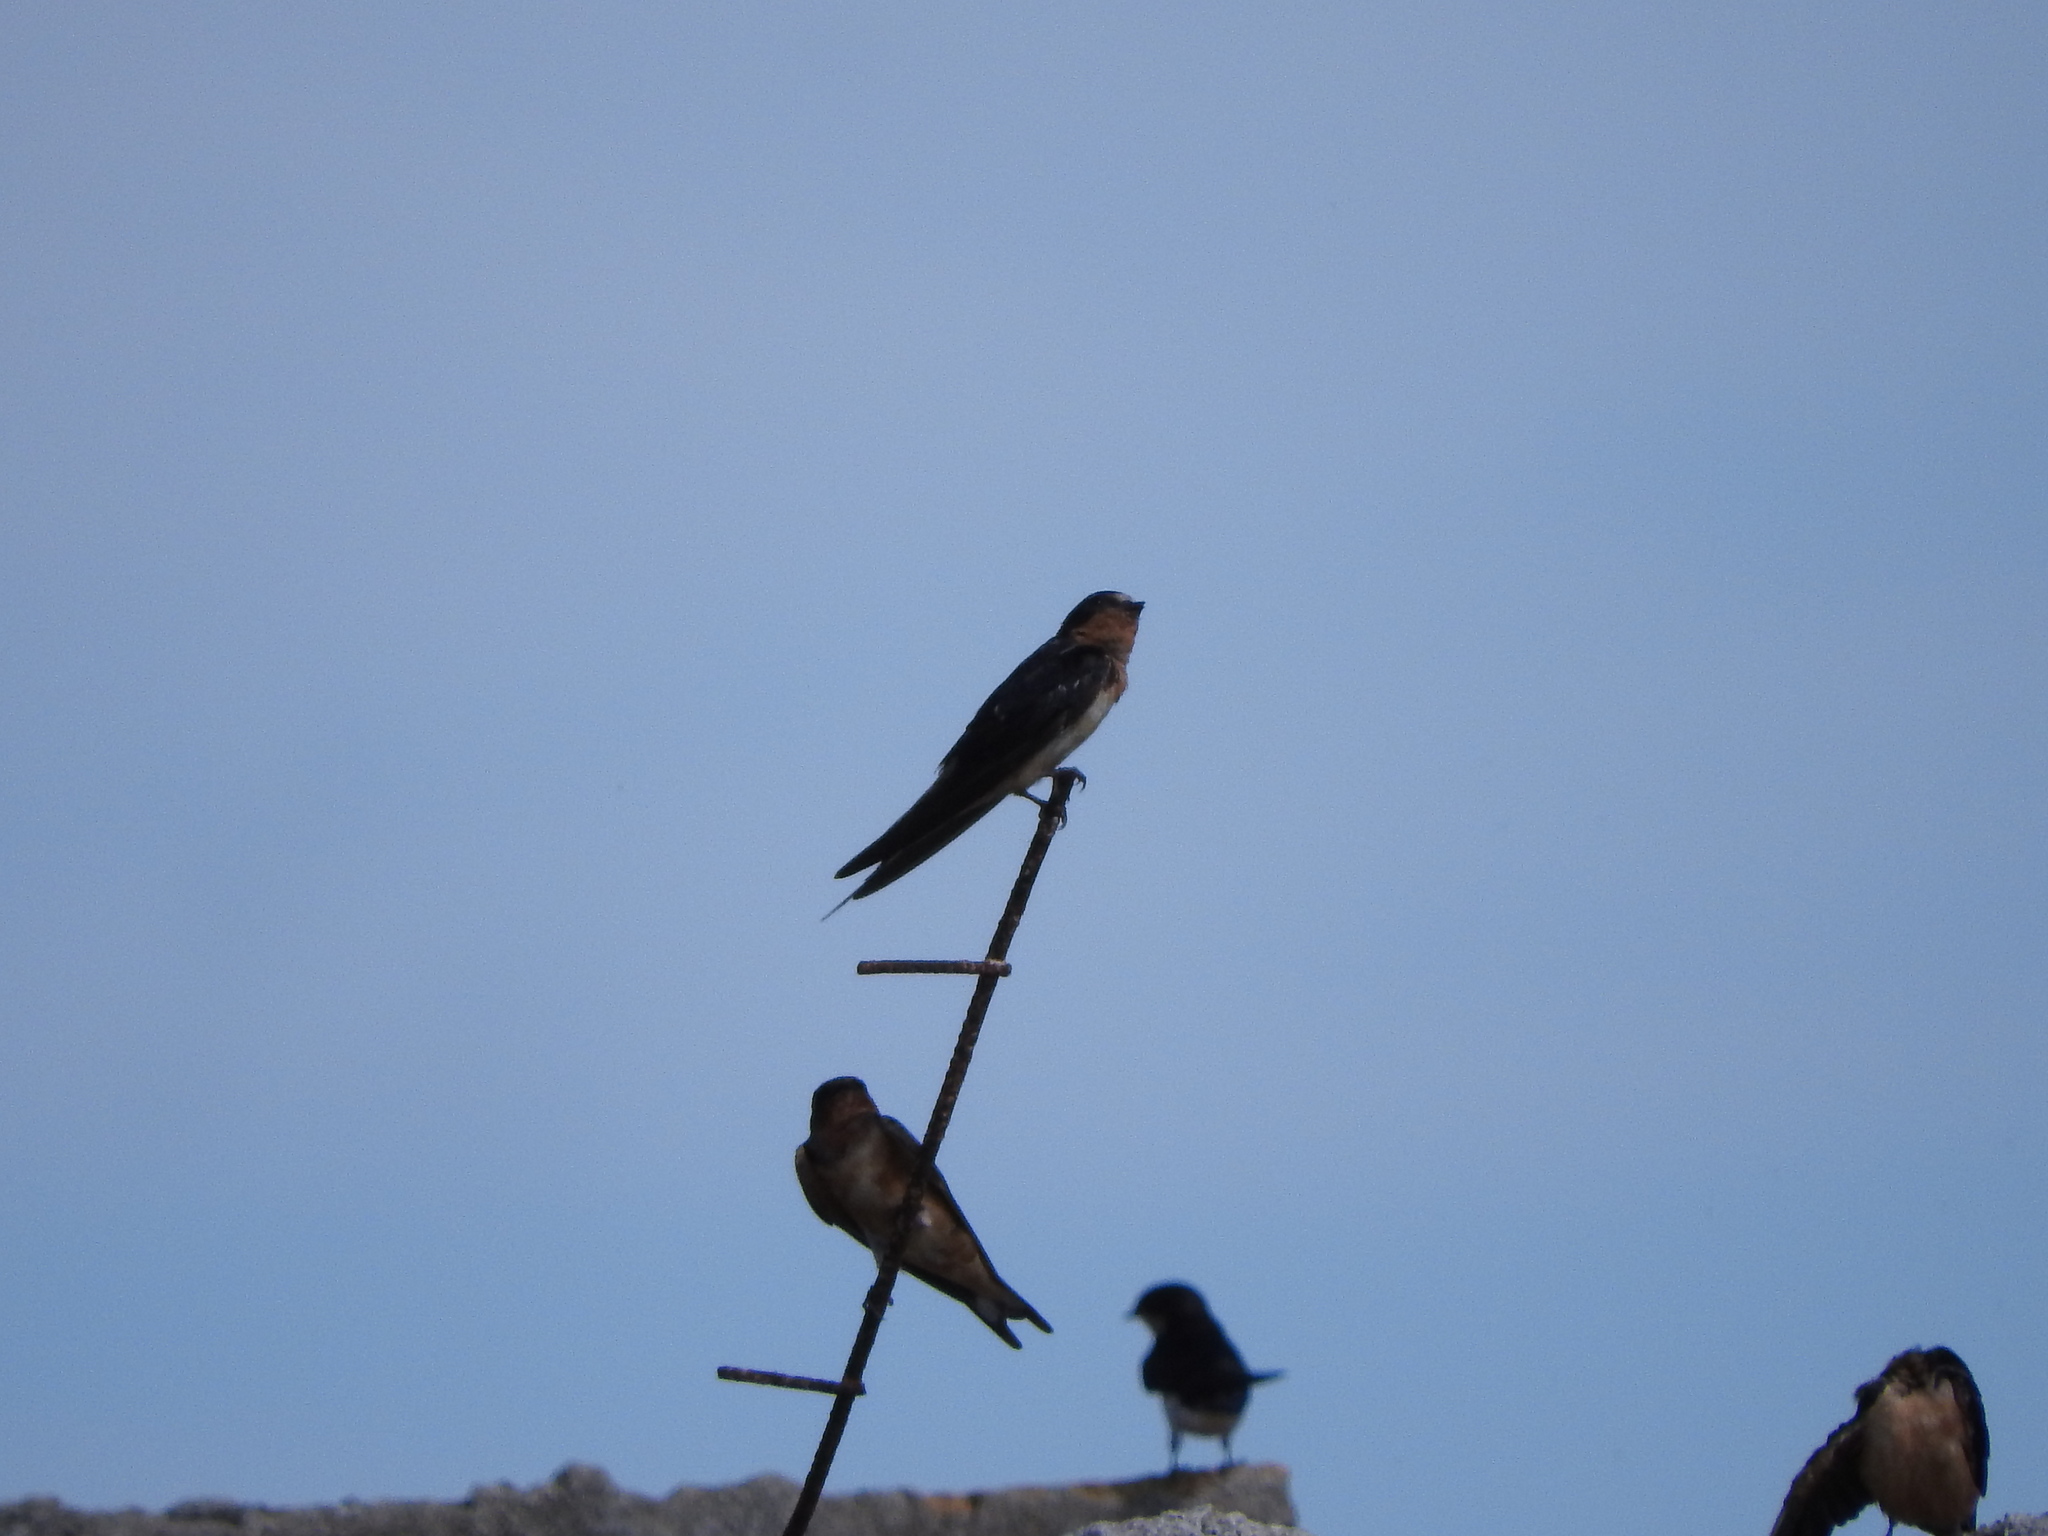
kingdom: Animalia
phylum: Chordata
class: Aves
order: Passeriformes
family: Hirundinidae
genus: Hirundo
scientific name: Hirundo rustica
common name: Barn swallow
